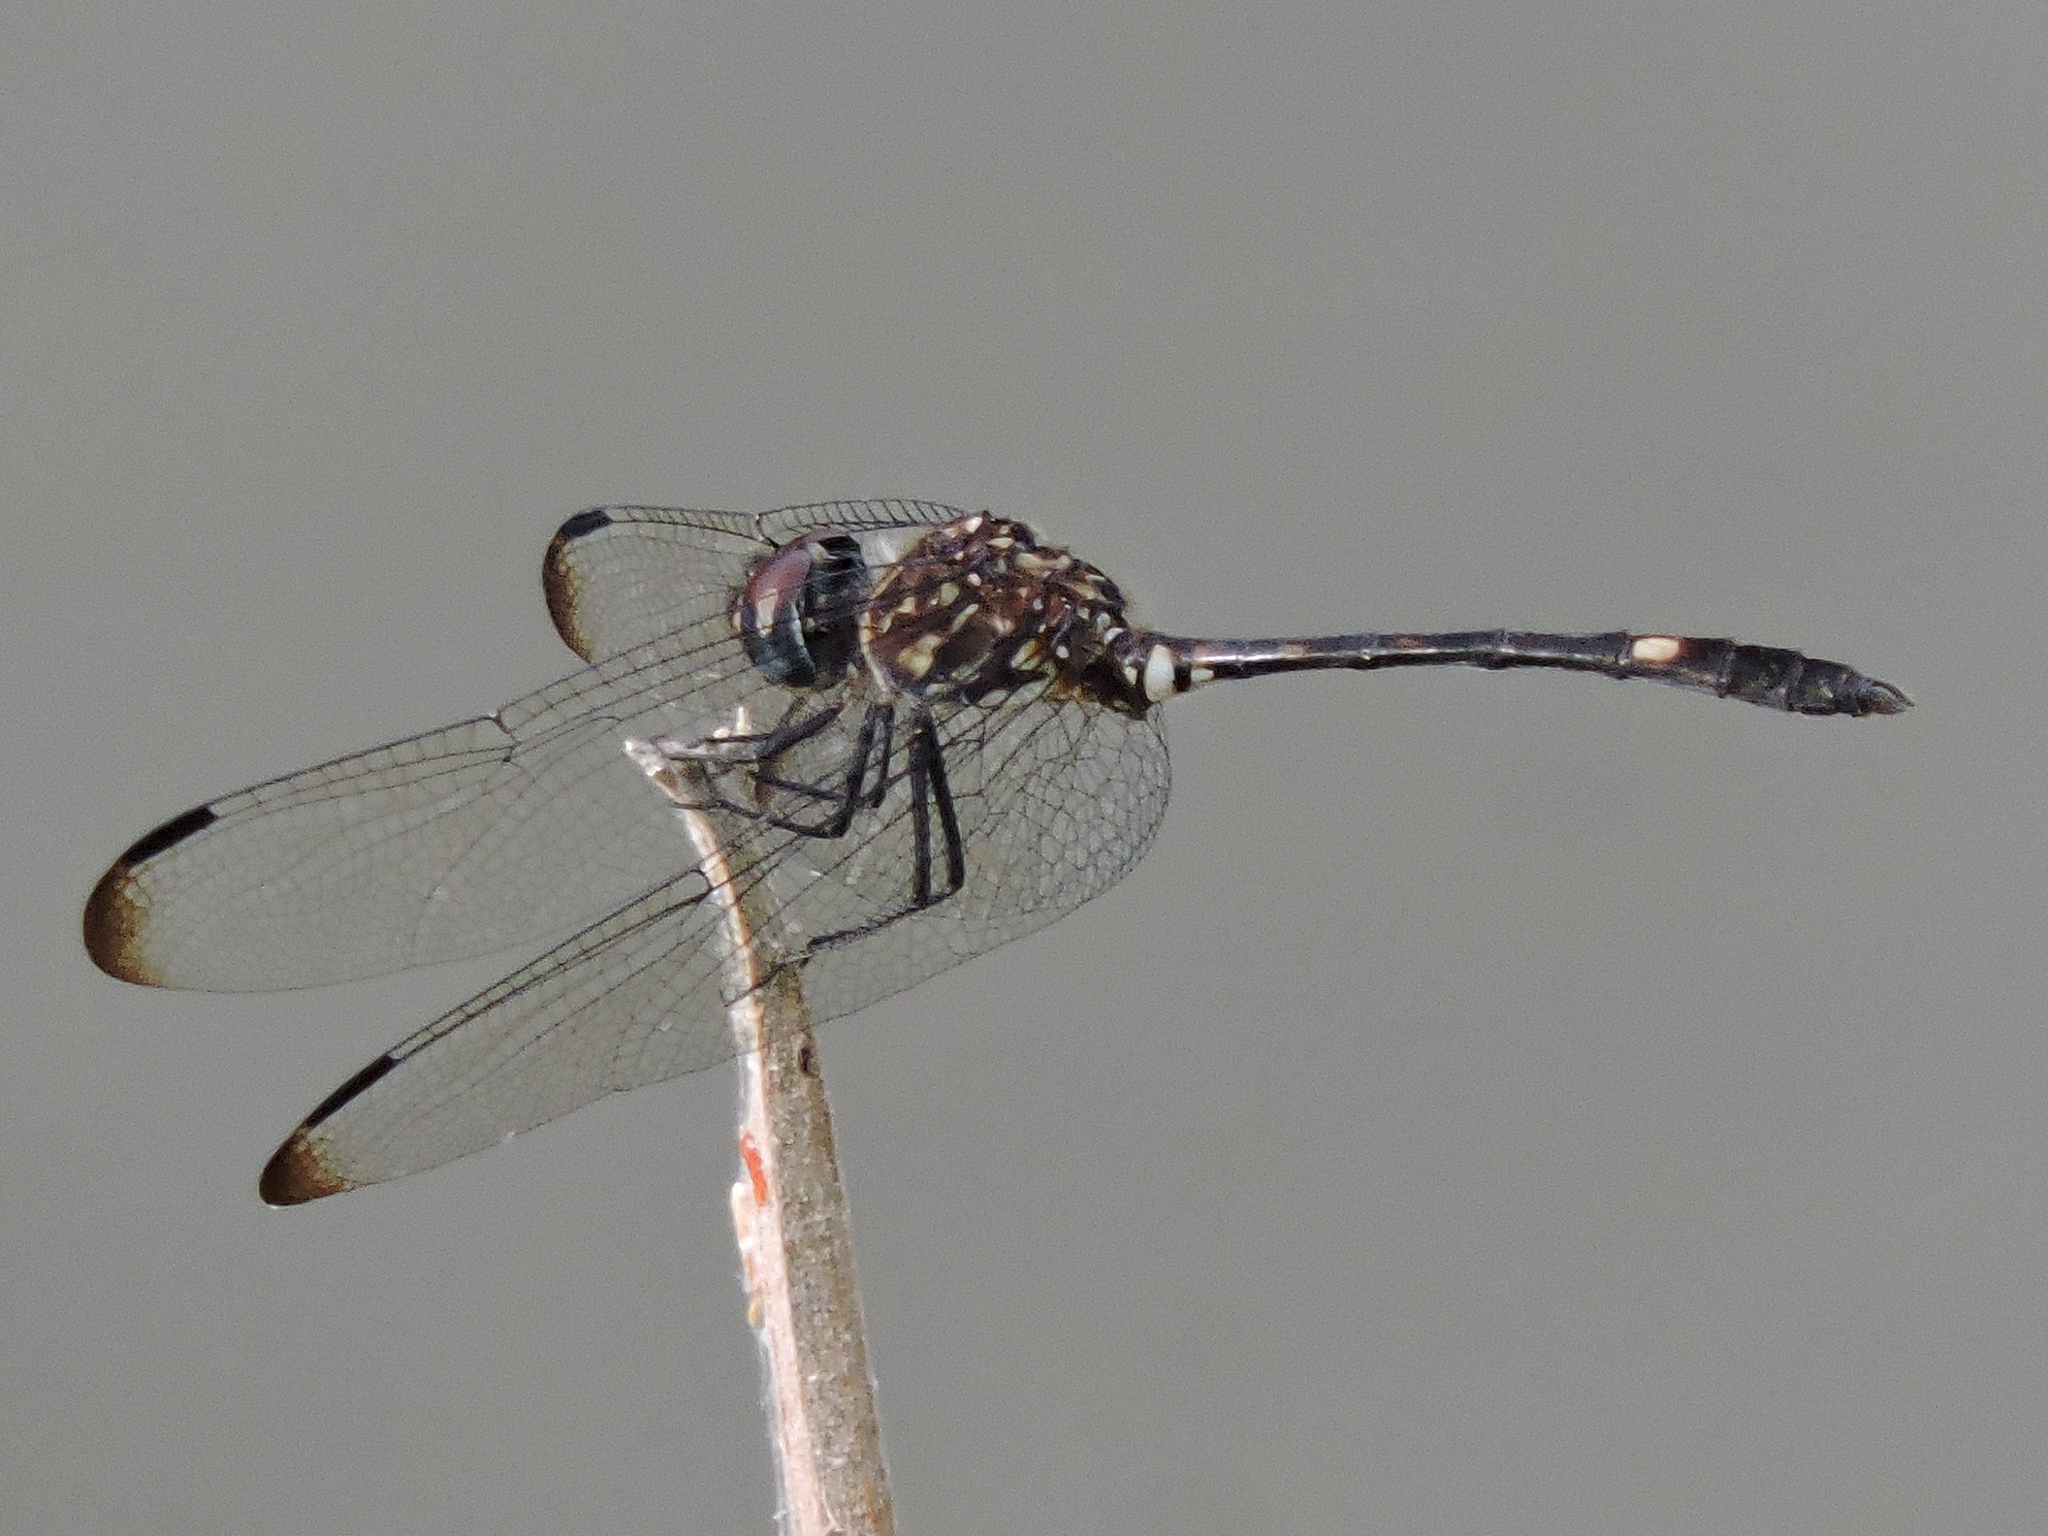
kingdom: Animalia
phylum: Arthropoda
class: Insecta
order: Odonata
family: Libellulidae
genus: Dythemis
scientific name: Dythemis velox
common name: Swift setwing
